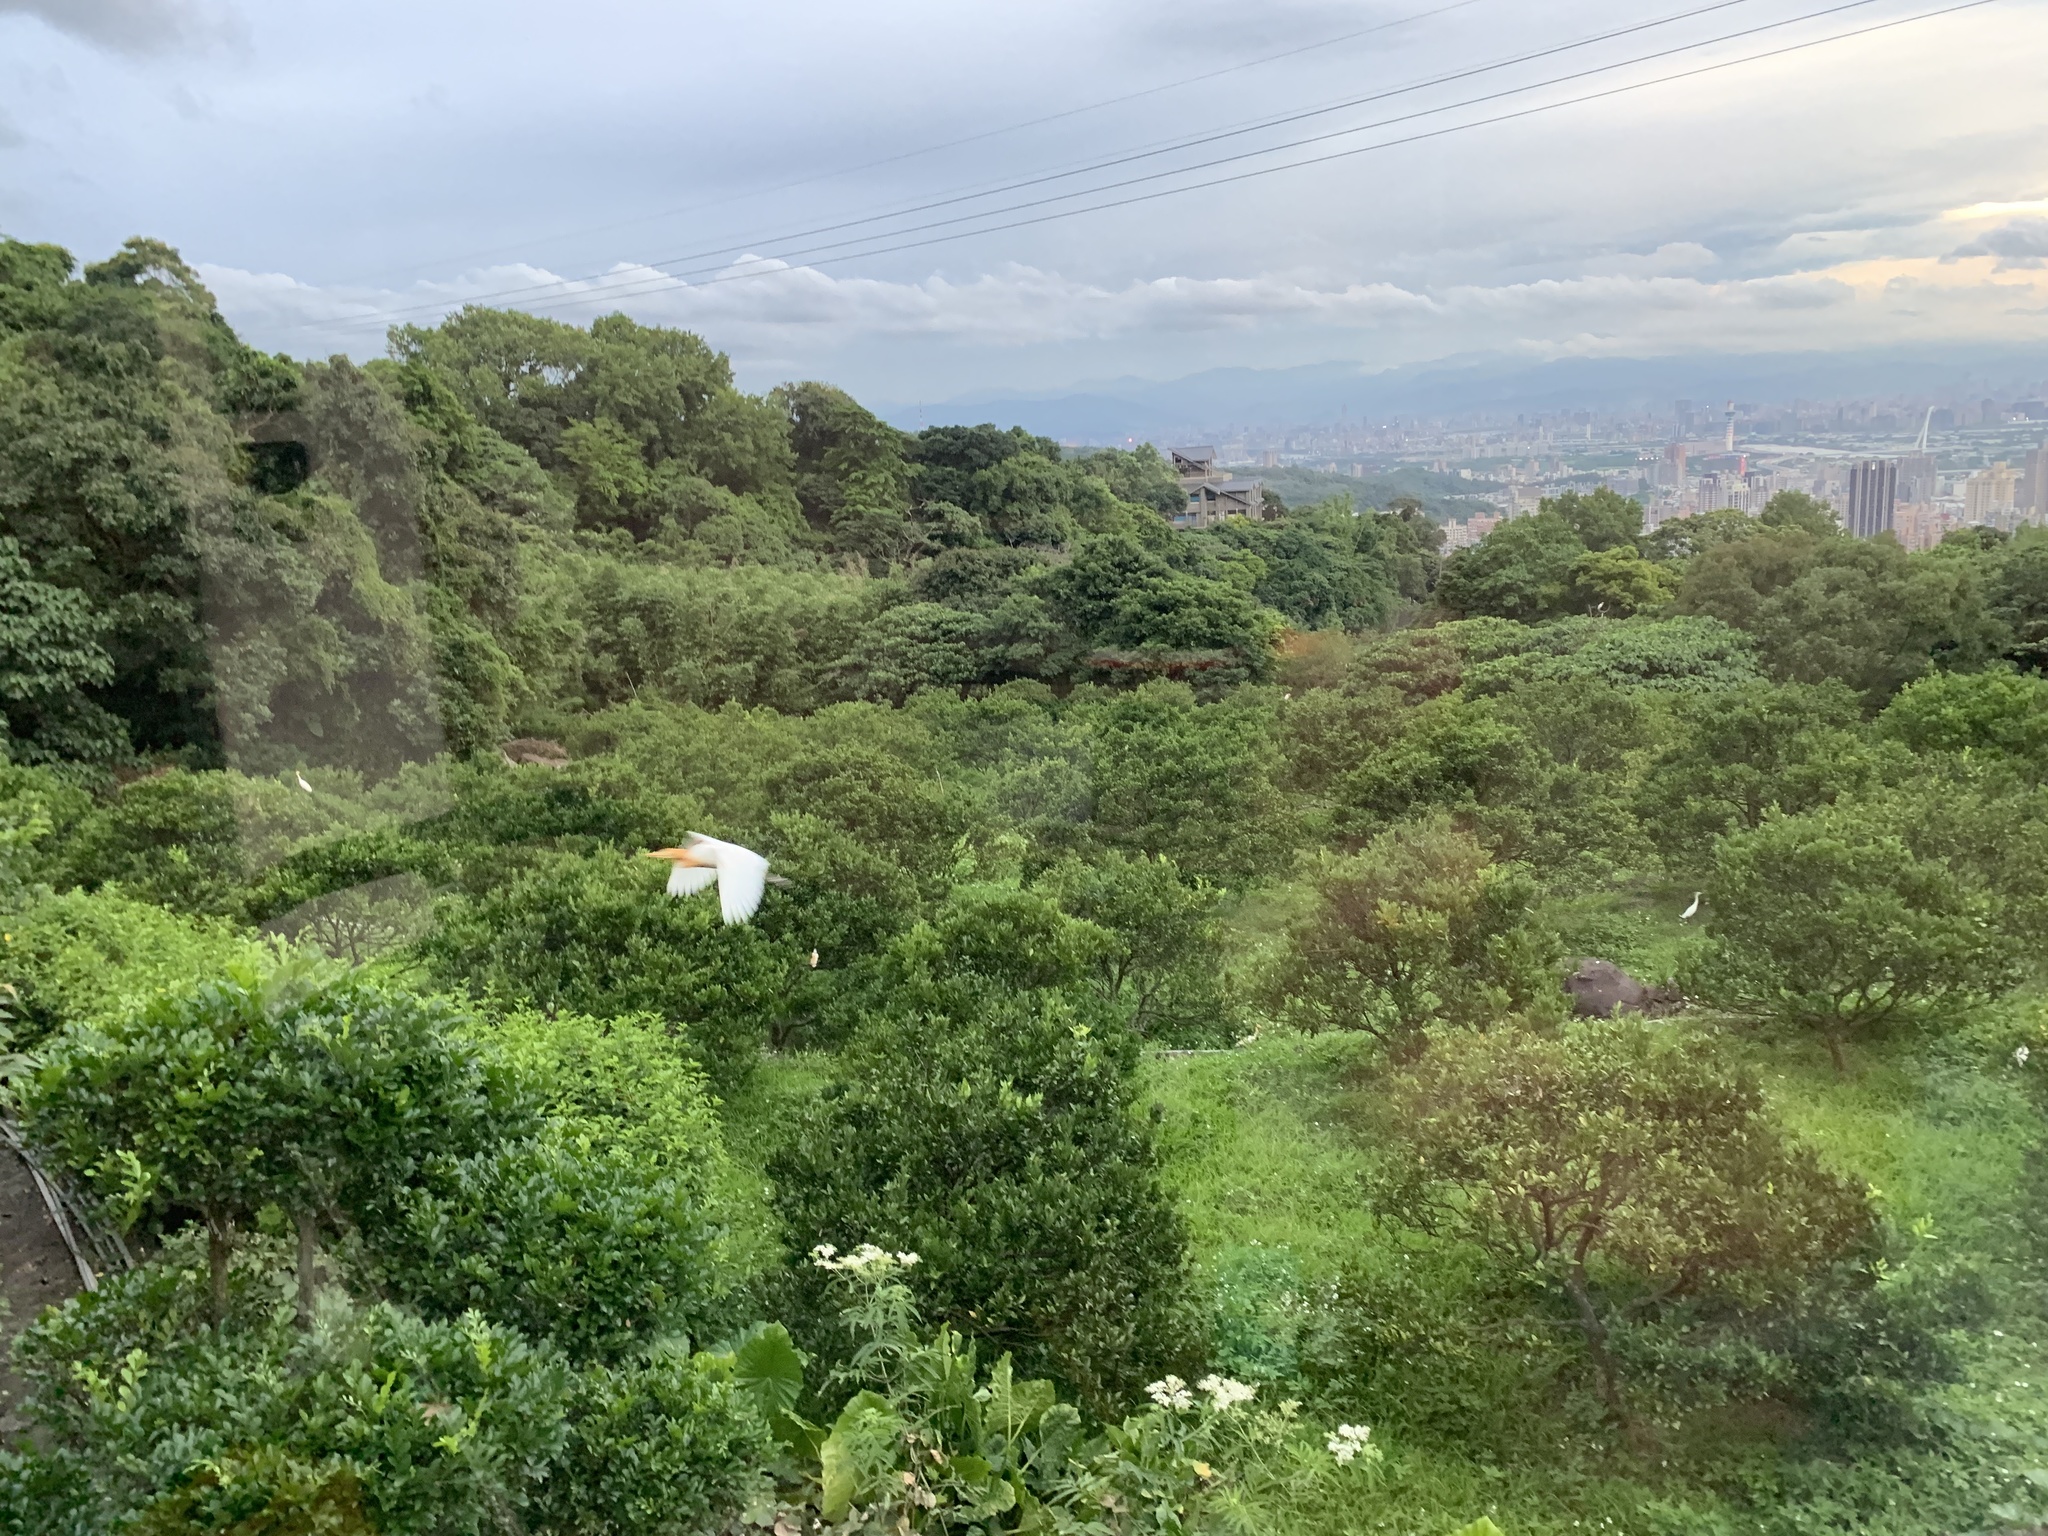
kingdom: Animalia
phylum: Chordata
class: Aves
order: Pelecaniformes
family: Ardeidae
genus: Bubulcus
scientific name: Bubulcus coromandus
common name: Eastern cattle egret
